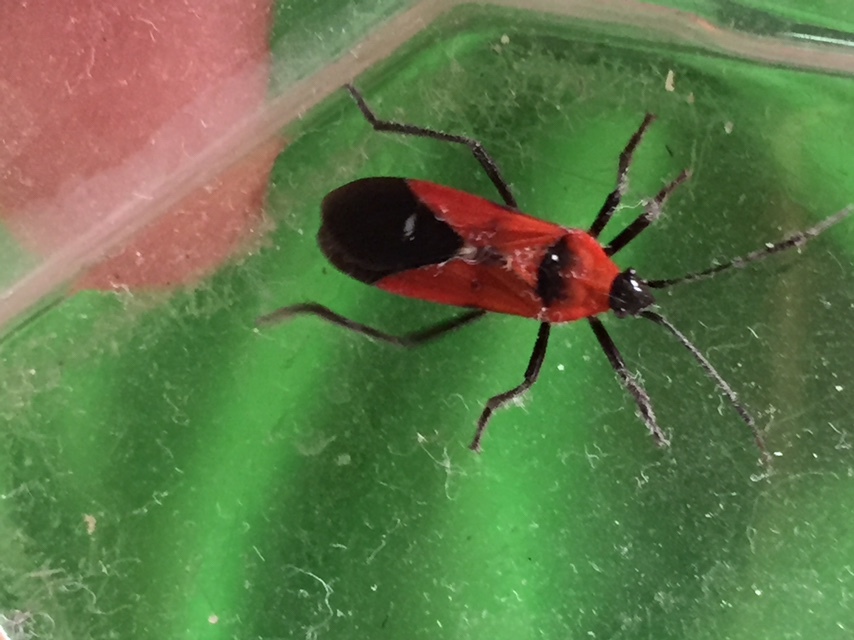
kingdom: Animalia
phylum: Arthropoda
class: Insecta
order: Hemiptera
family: Lygaeidae
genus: Oncopeltus
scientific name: Oncopeltus nigriceps
